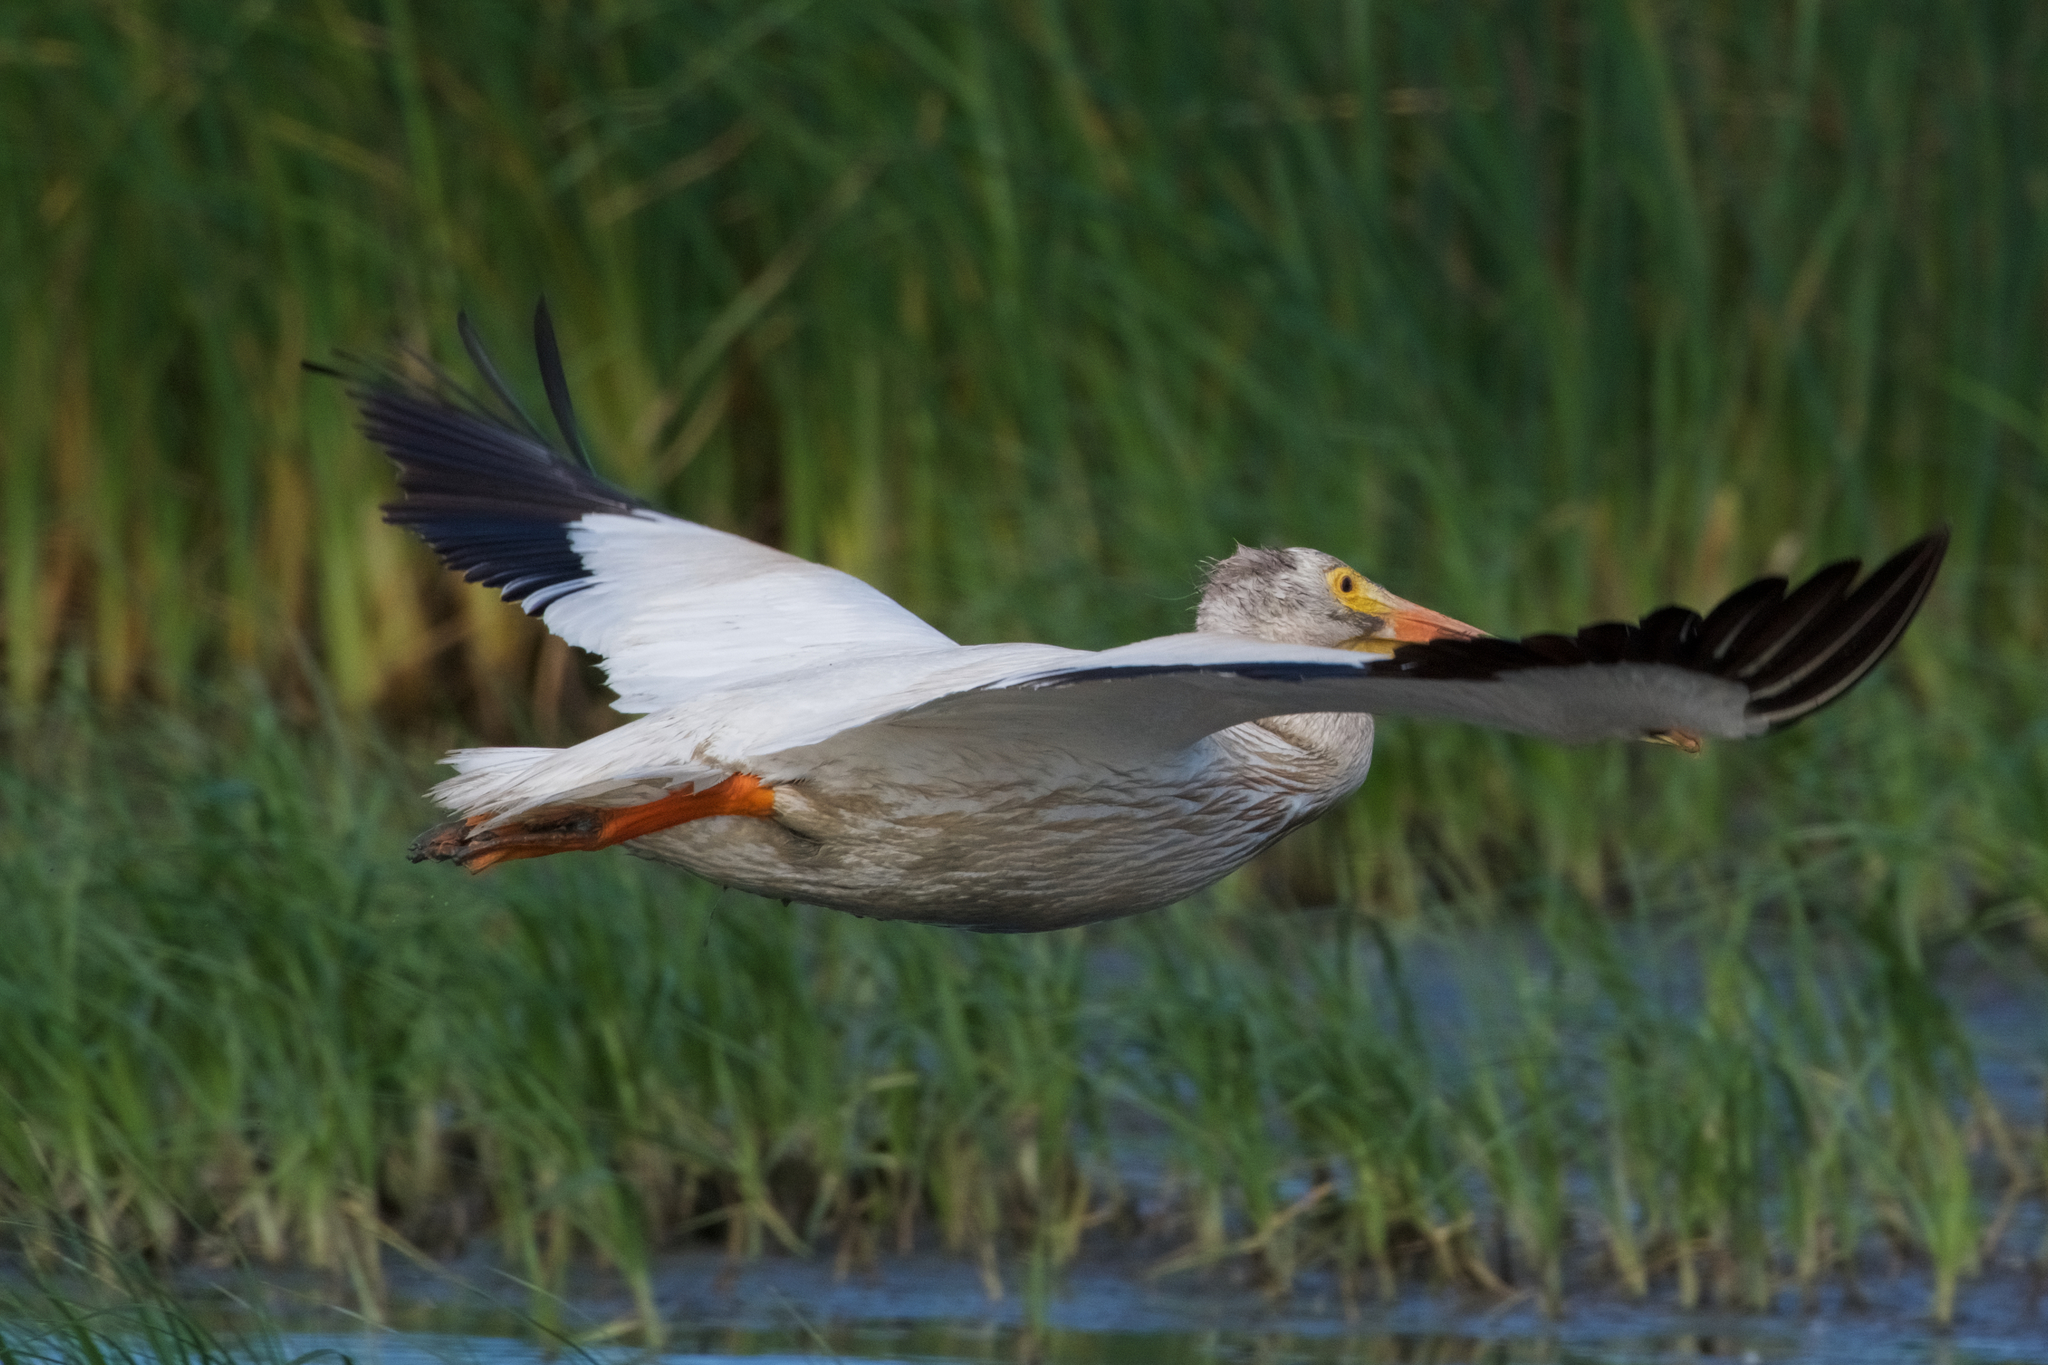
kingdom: Animalia
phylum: Chordata
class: Aves
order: Pelecaniformes
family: Pelecanidae
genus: Pelecanus
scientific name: Pelecanus erythrorhynchos
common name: American white pelican
